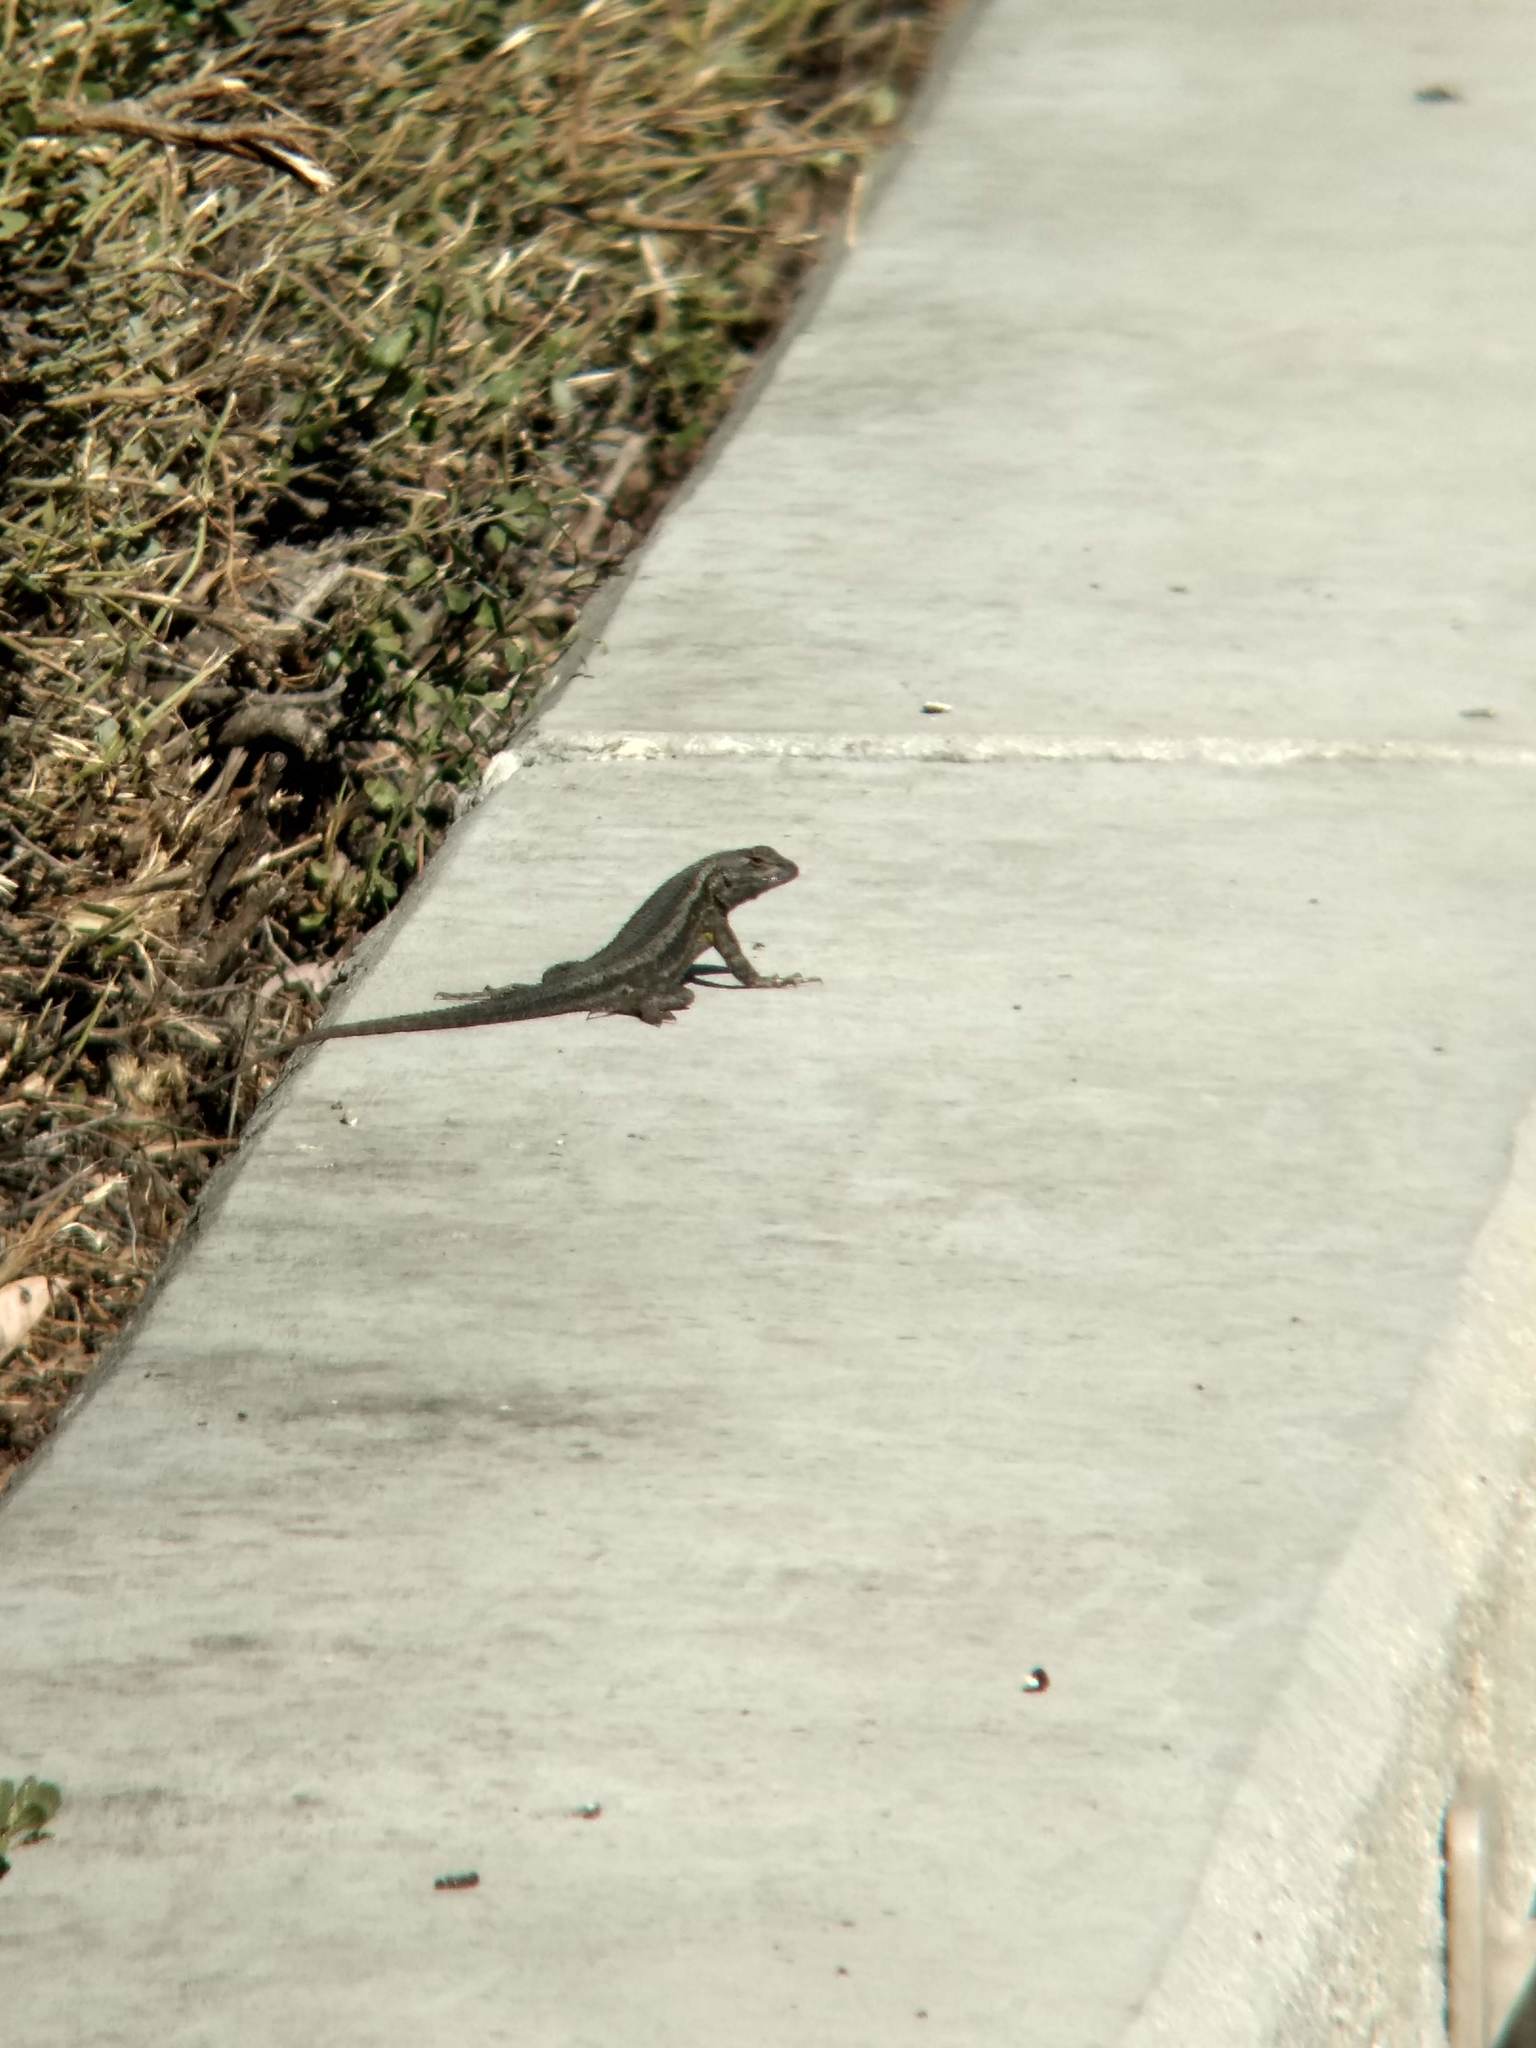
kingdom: Animalia
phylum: Chordata
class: Squamata
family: Phrynosomatidae
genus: Sceloporus
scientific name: Sceloporus occidentalis
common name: Western fence lizard
